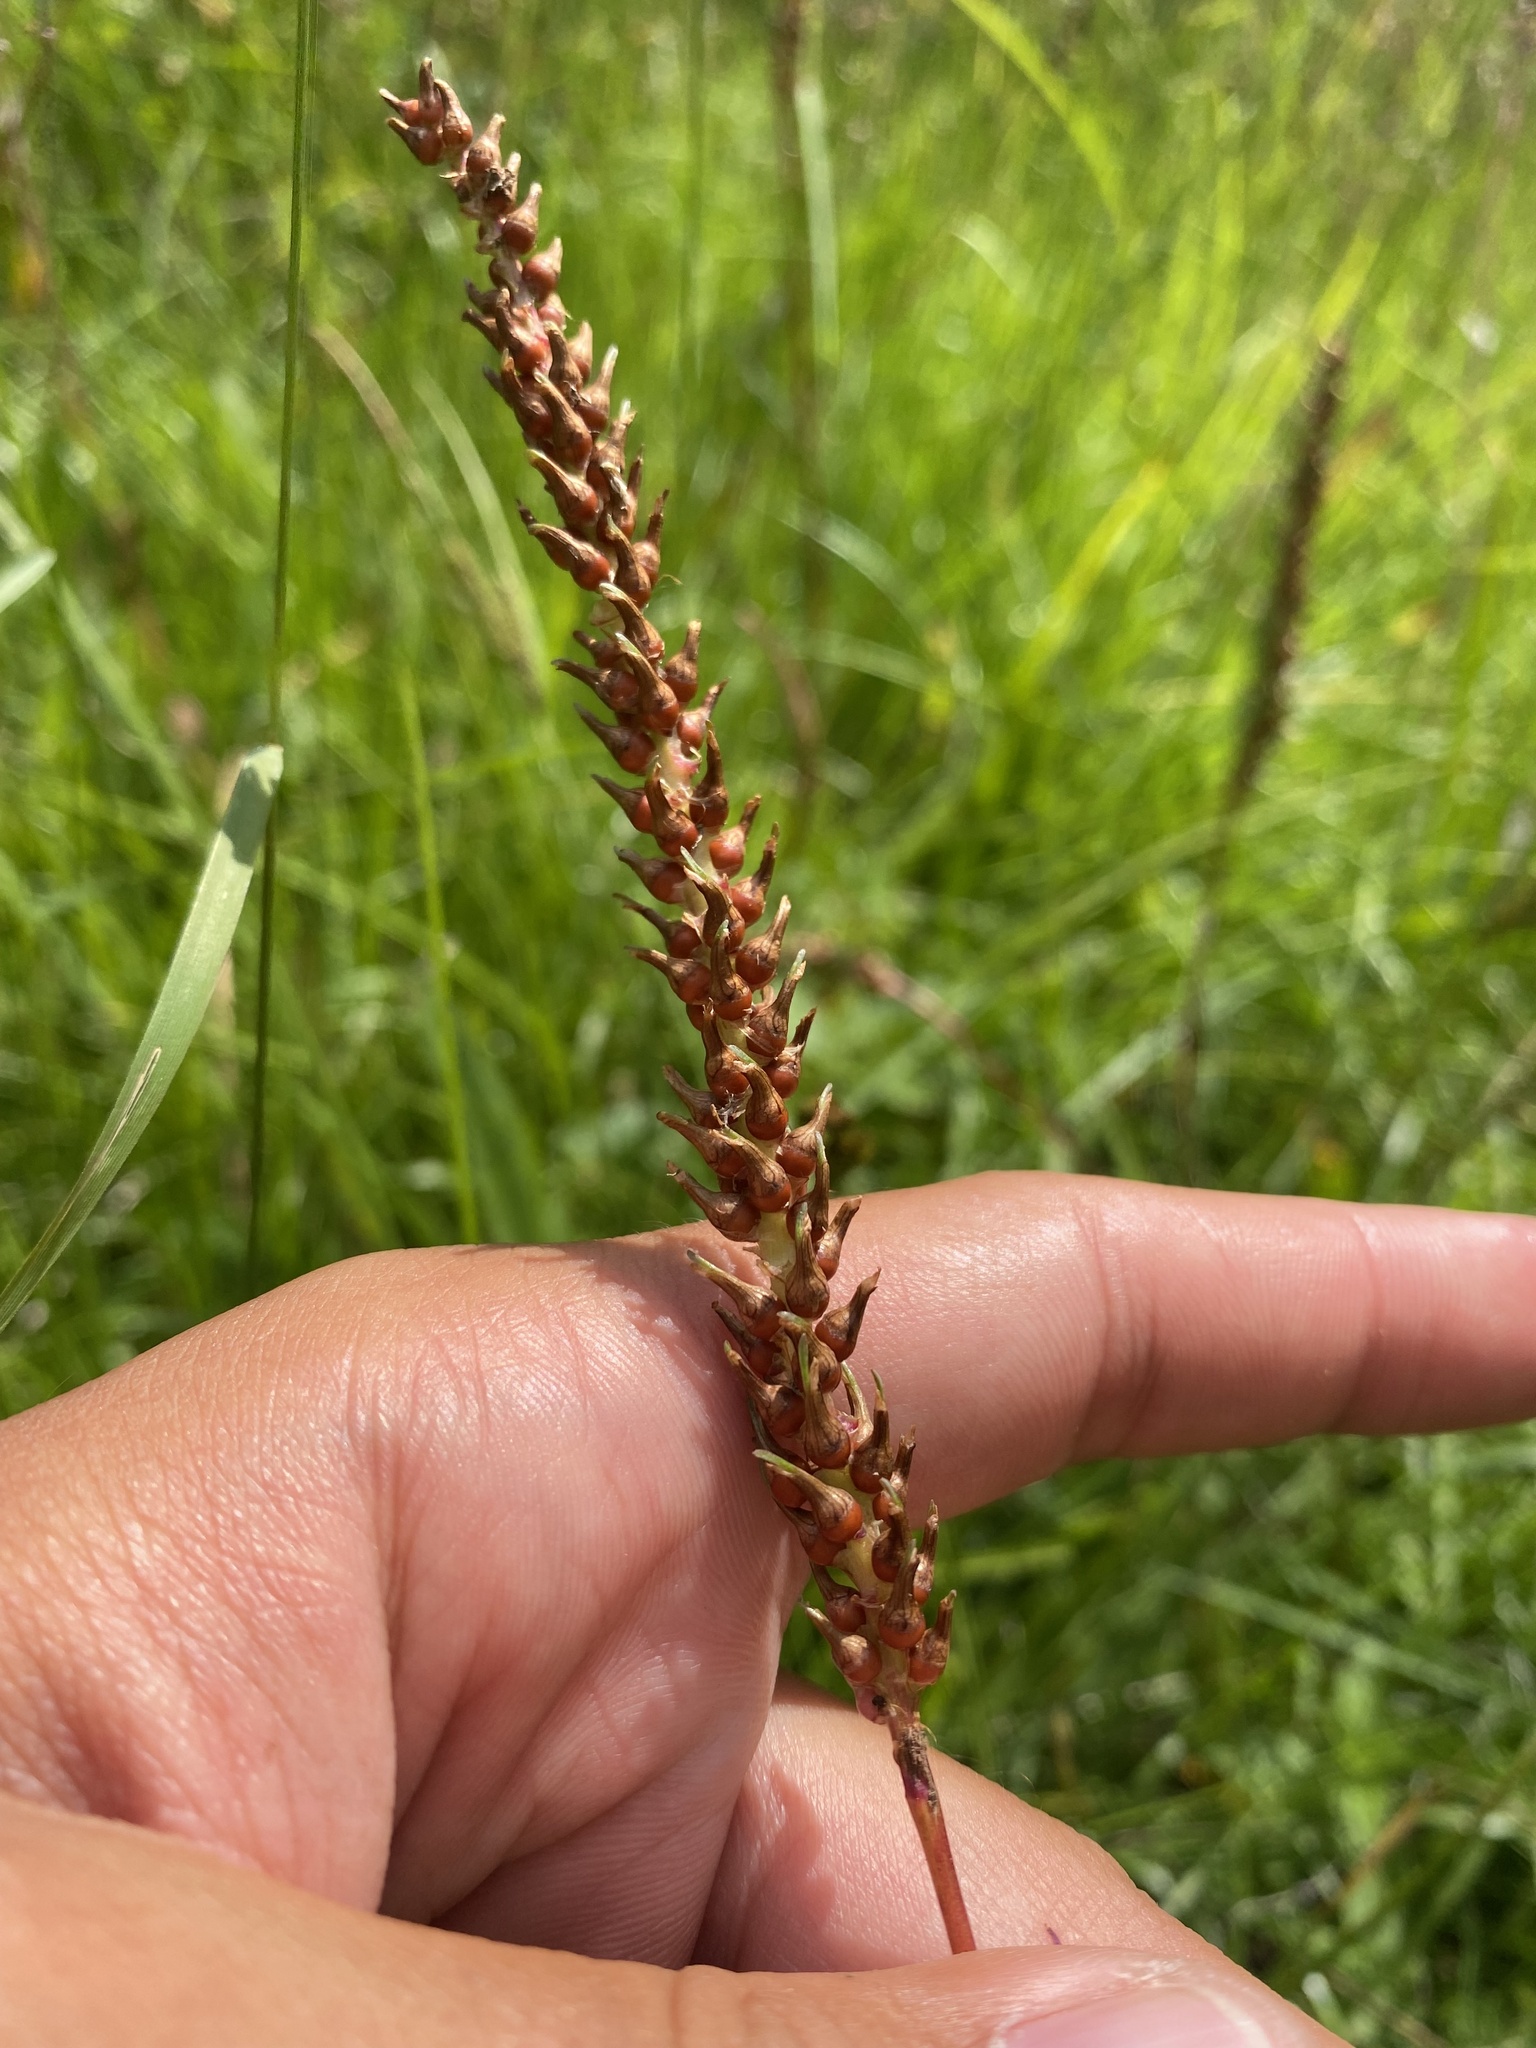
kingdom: Plantae
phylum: Tracheophyta
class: Magnoliopsida
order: Caryophyllales
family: Polygonaceae
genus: Bistorta
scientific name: Bistorta vivipara
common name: Alpine bistort
